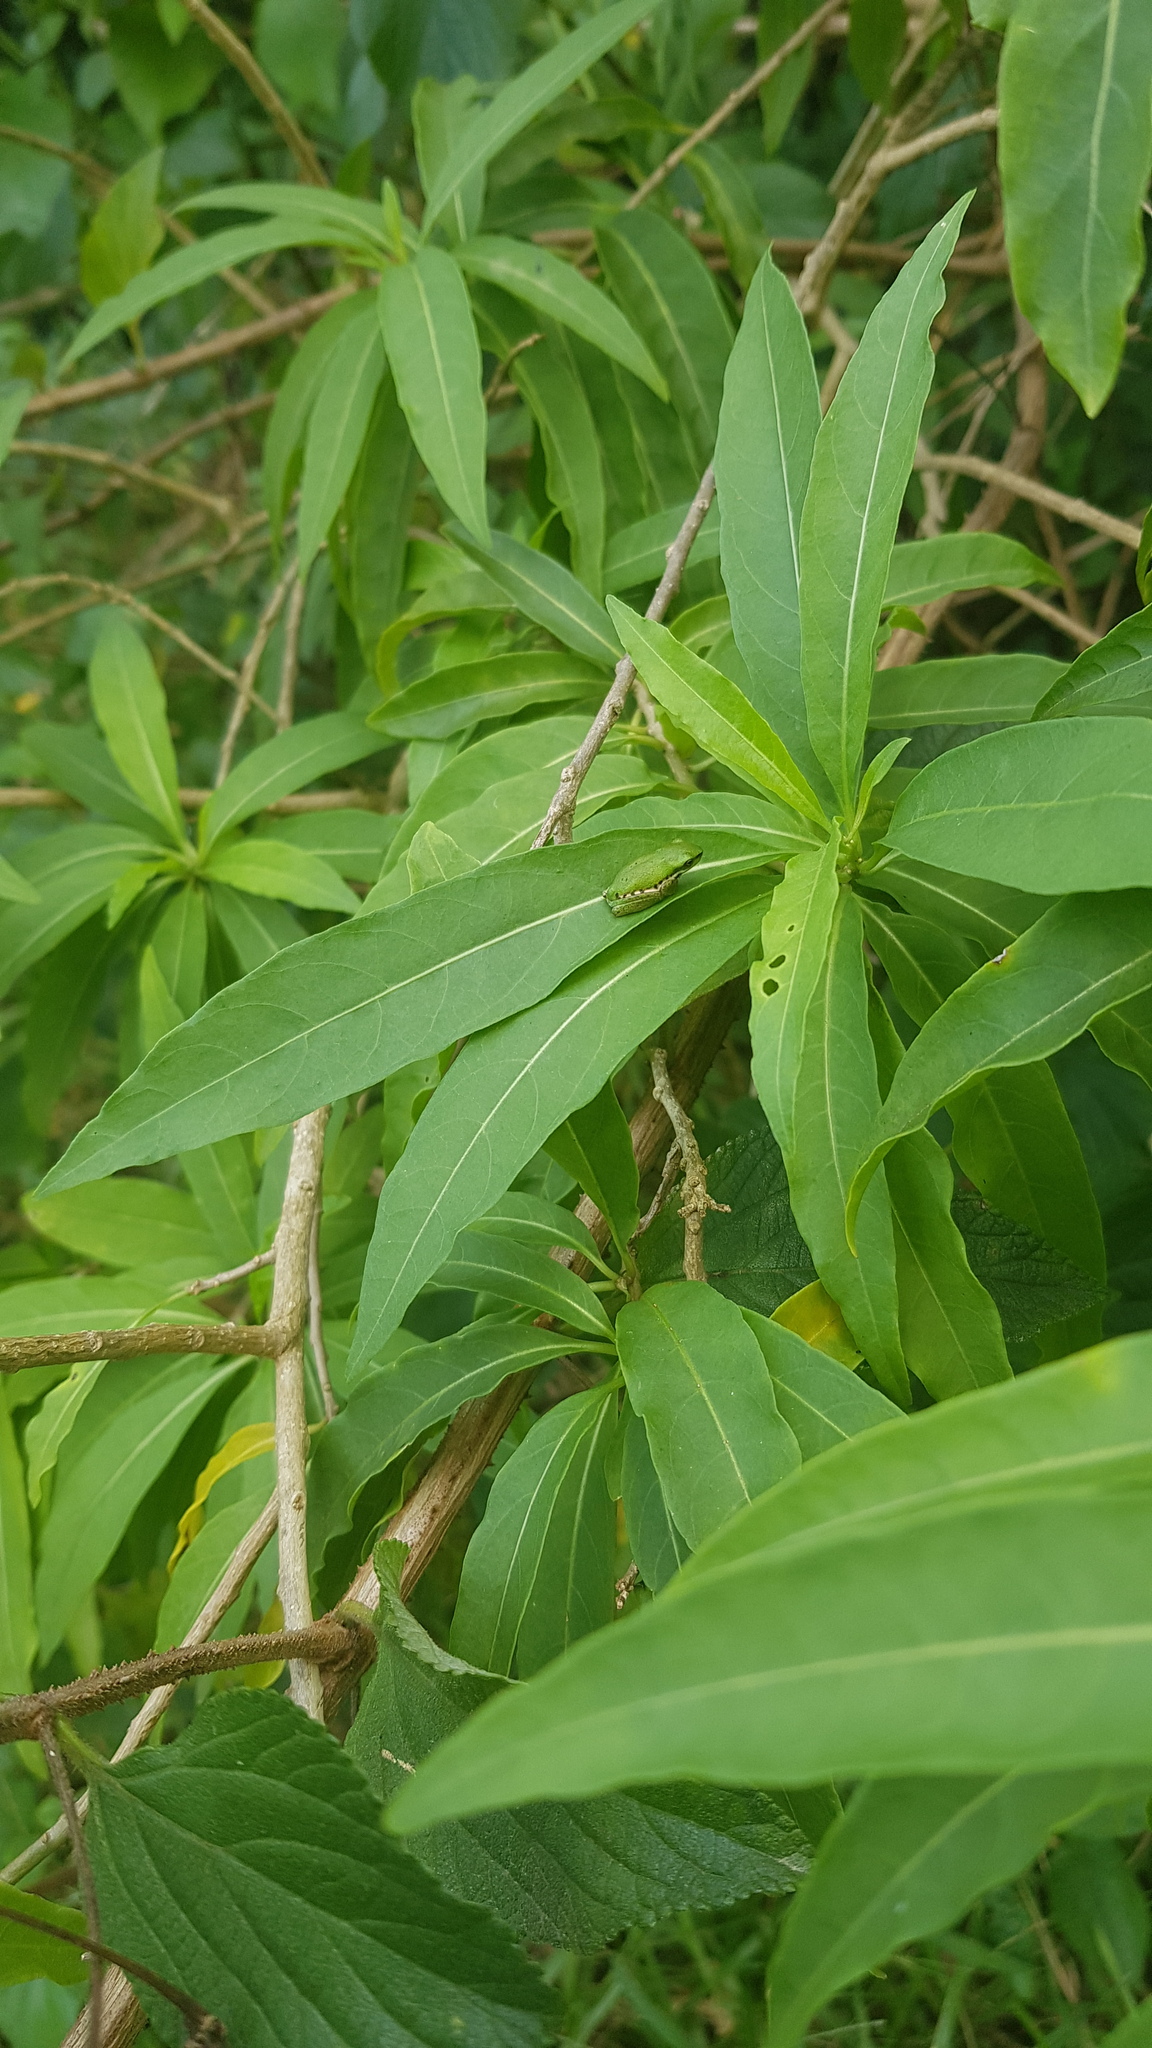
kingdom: Animalia
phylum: Chordata
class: Amphibia
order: Anura
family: Pelodryadidae
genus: Litoria
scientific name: Litoria fallax
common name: Eastern dwarf treefrog
